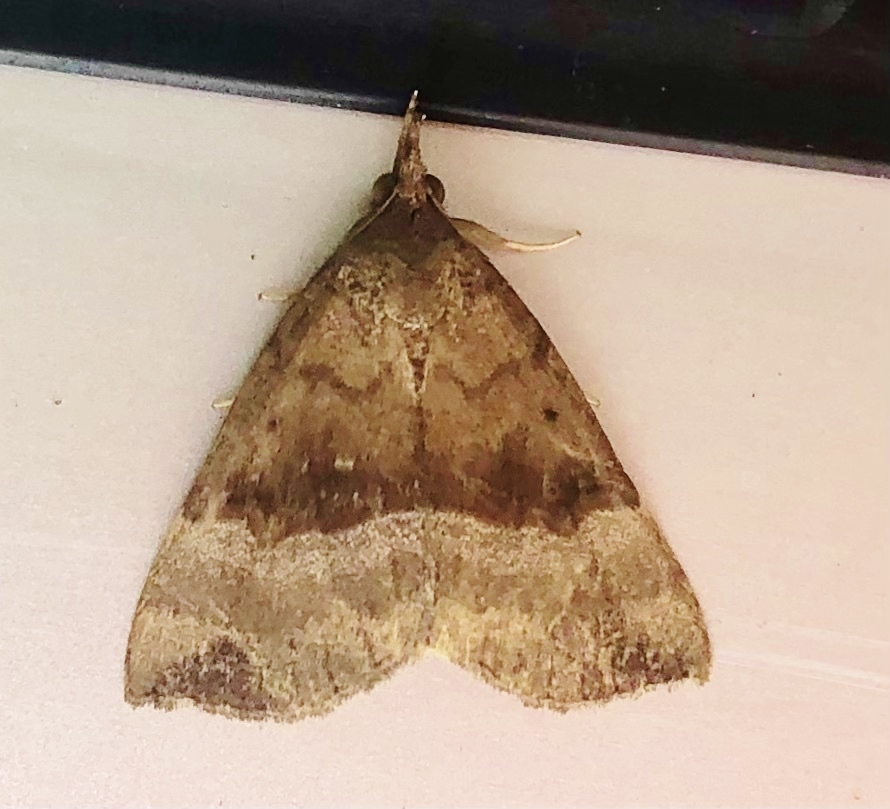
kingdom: Animalia
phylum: Arthropoda
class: Insecta
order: Lepidoptera
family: Erebidae
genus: Hypena
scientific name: Hypena madefactalis
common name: Gray-edged snout
